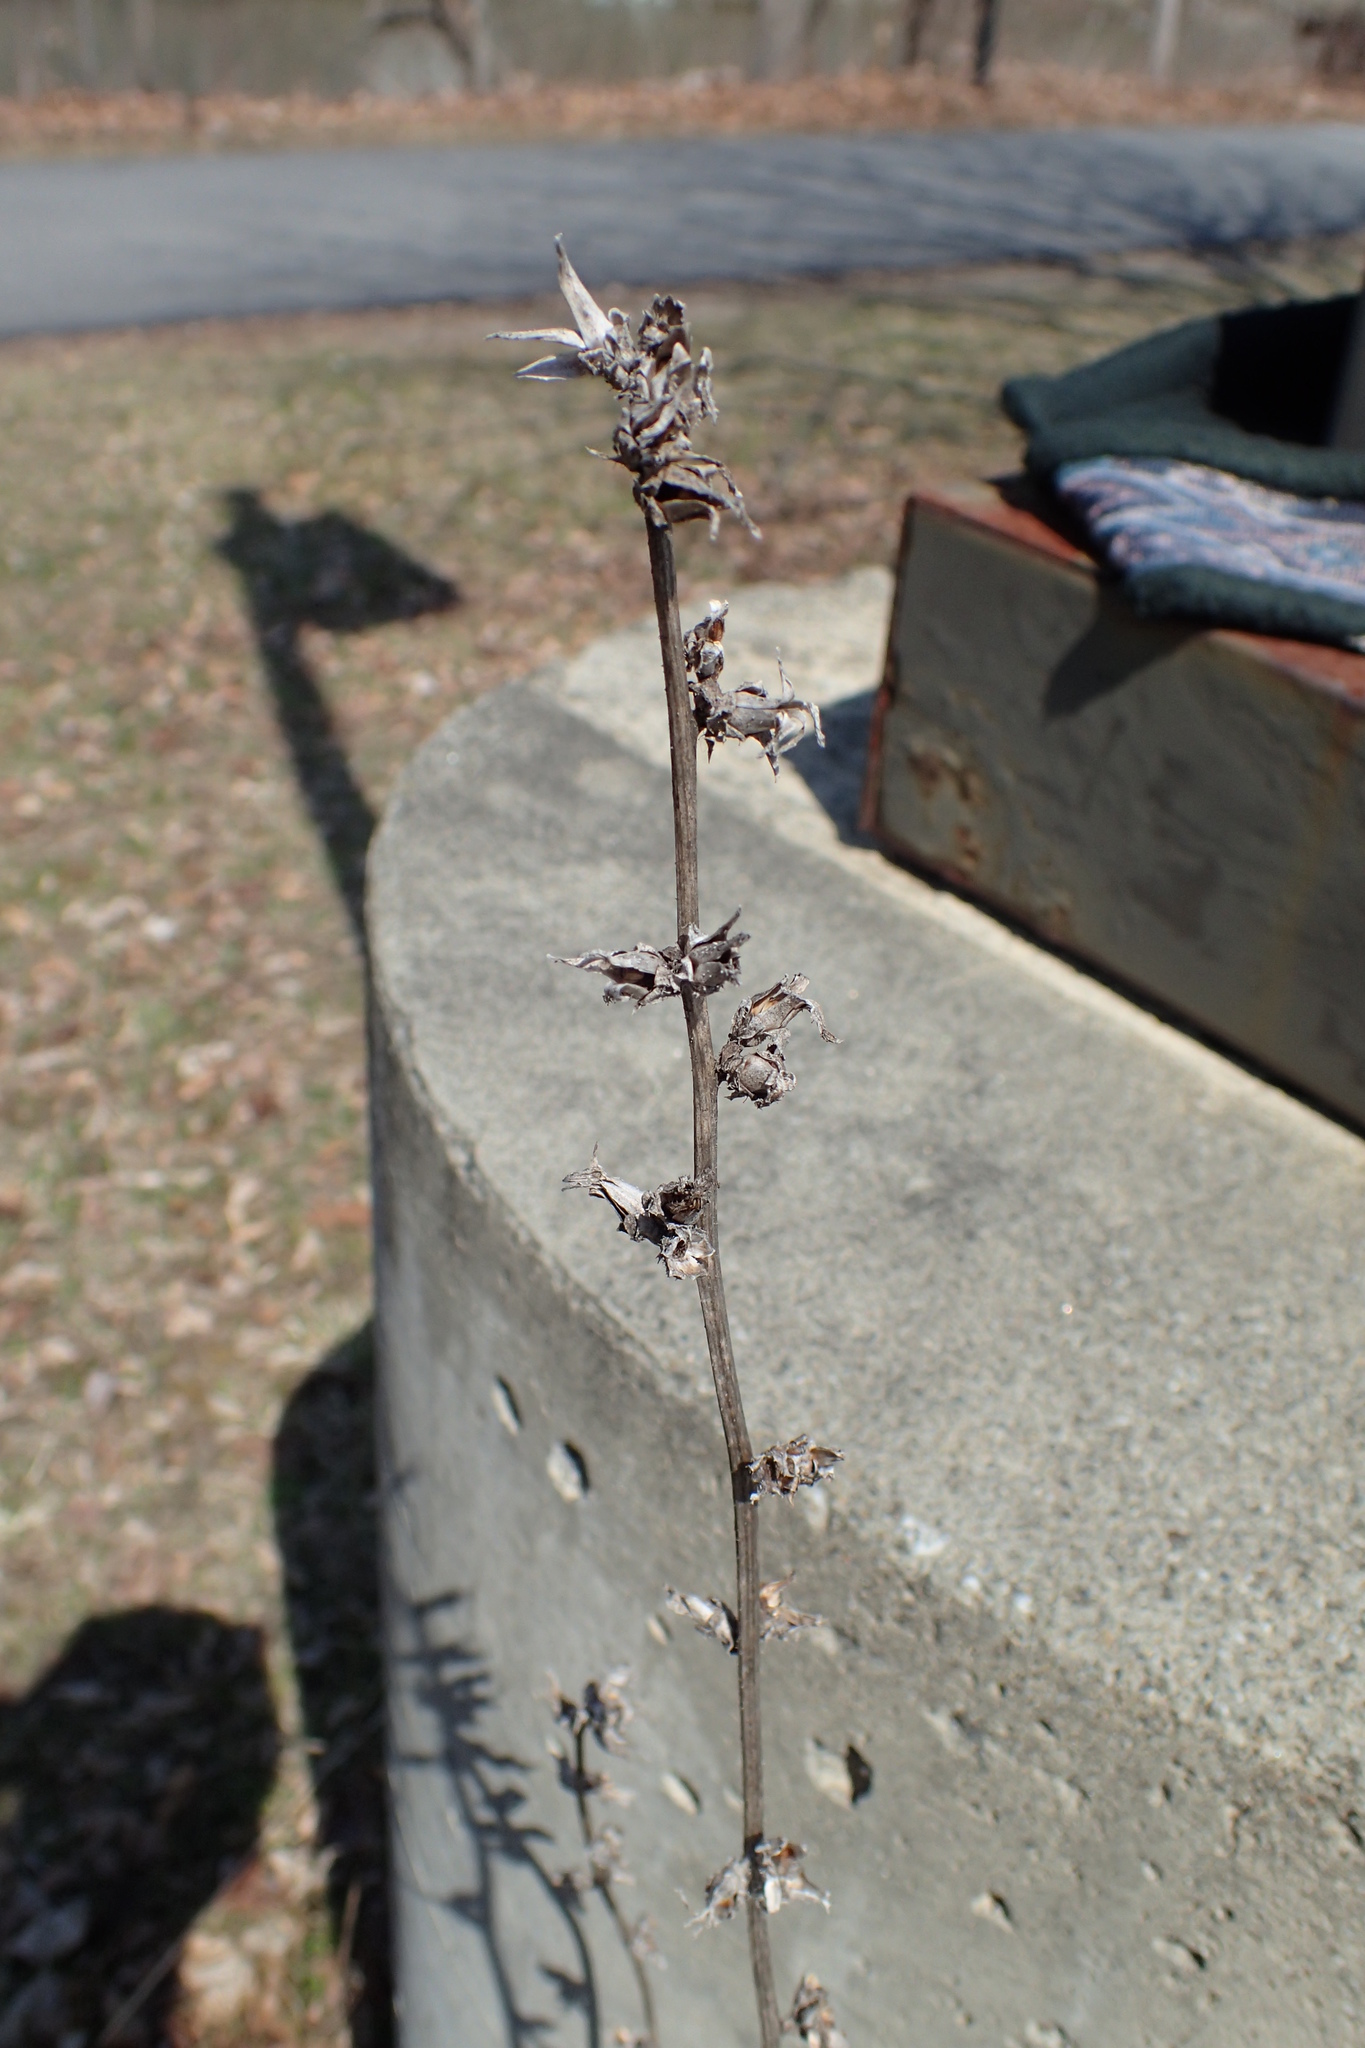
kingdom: Plantae
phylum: Tracheophyta
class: Magnoliopsida
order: Asterales
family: Asteraceae
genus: Cichorium
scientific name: Cichorium intybus
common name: Chicory
